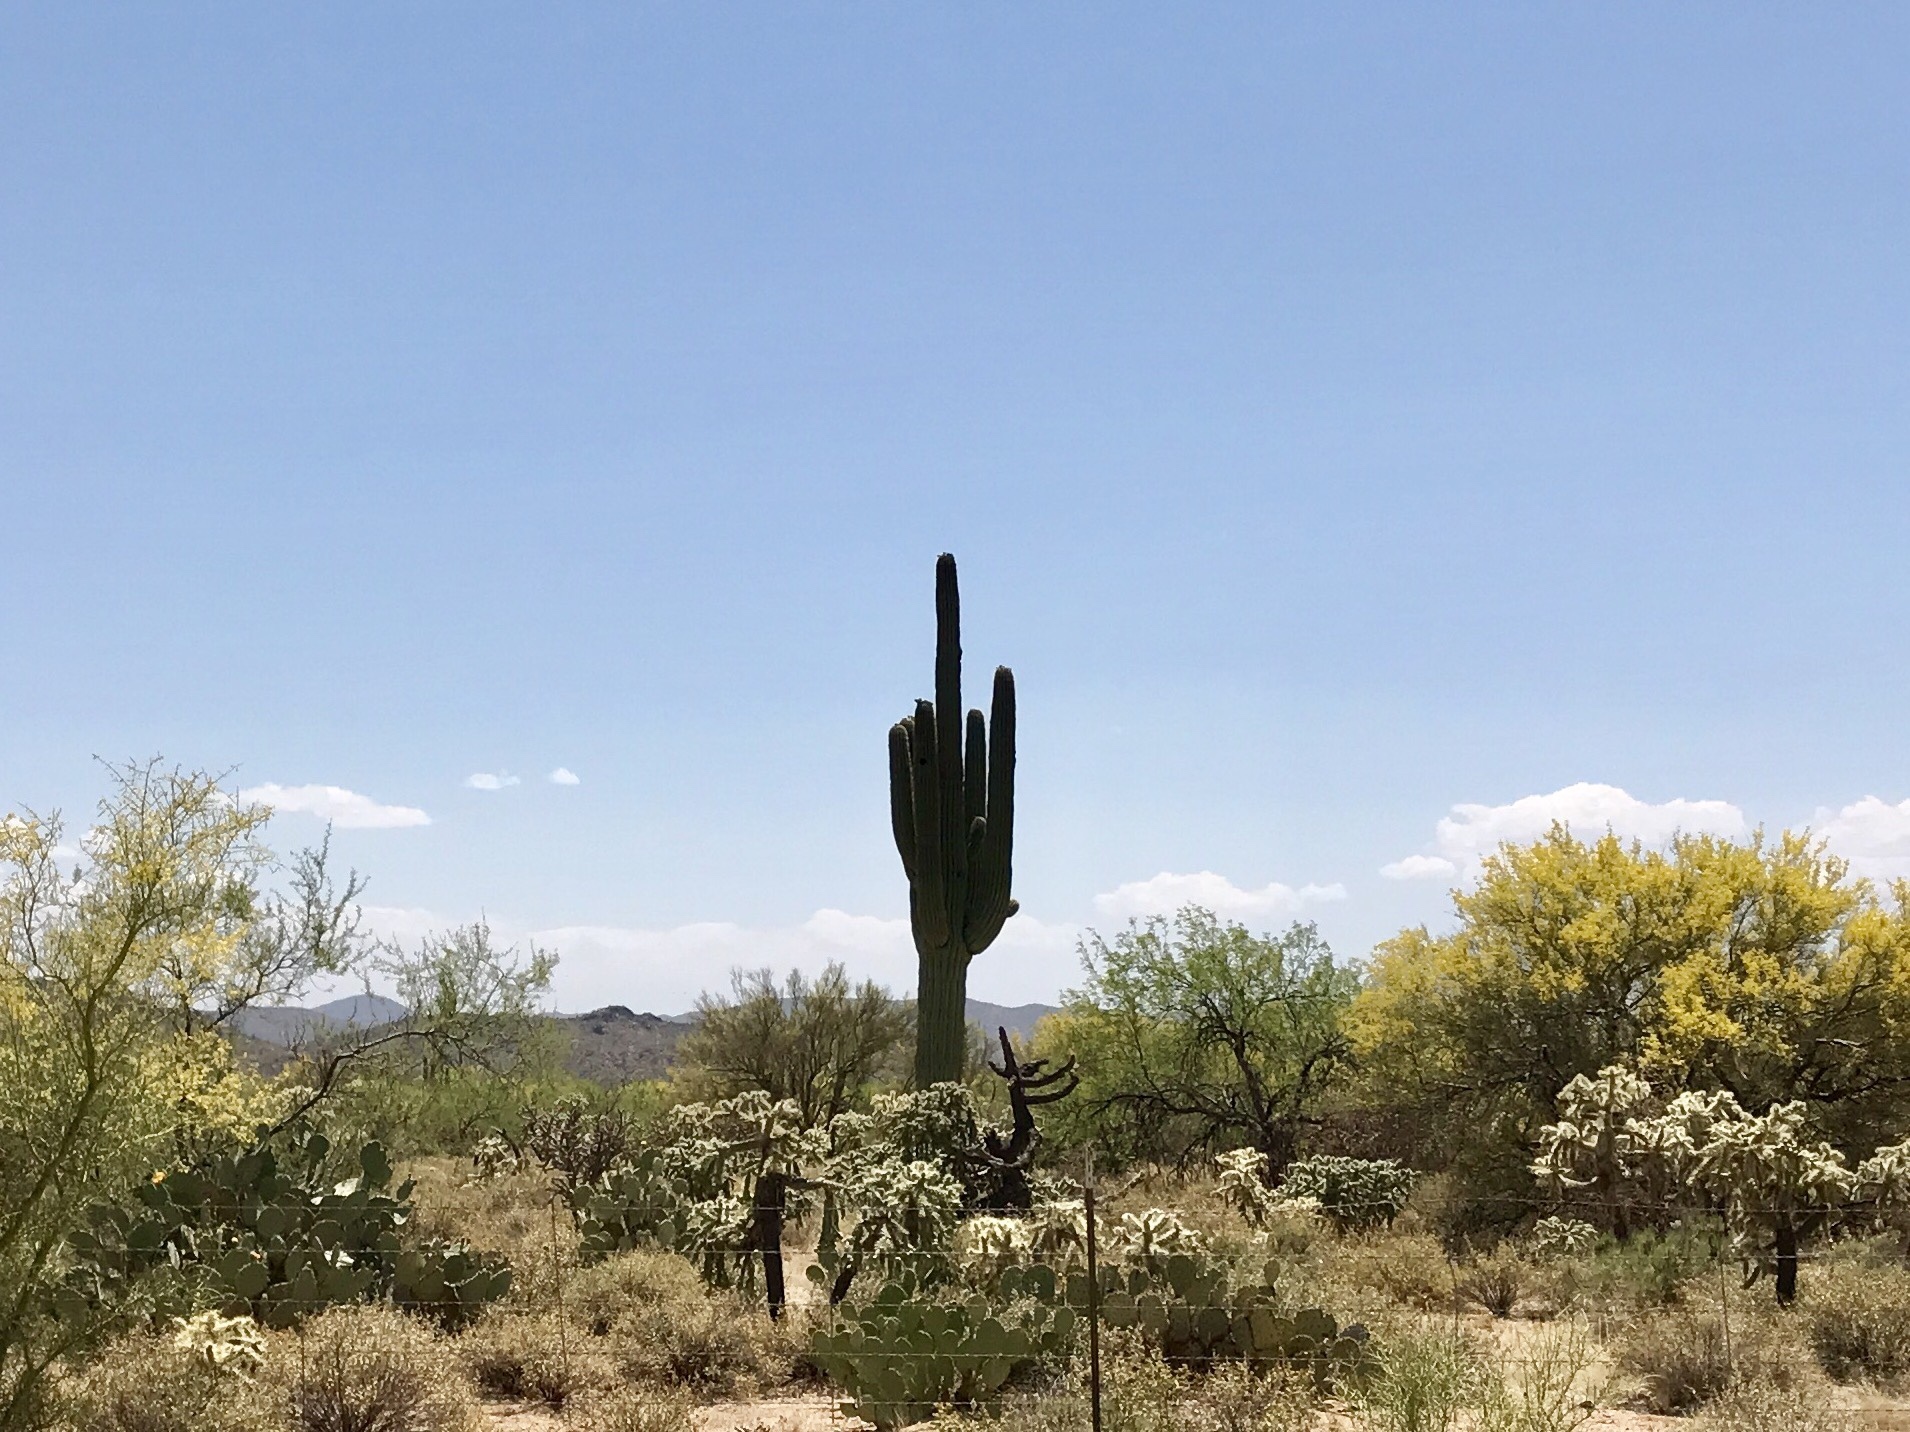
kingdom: Plantae
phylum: Tracheophyta
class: Magnoliopsida
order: Caryophyllales
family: Cactaceae
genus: Carnegiea
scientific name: Carnegiea gigantea
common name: Saguaro
